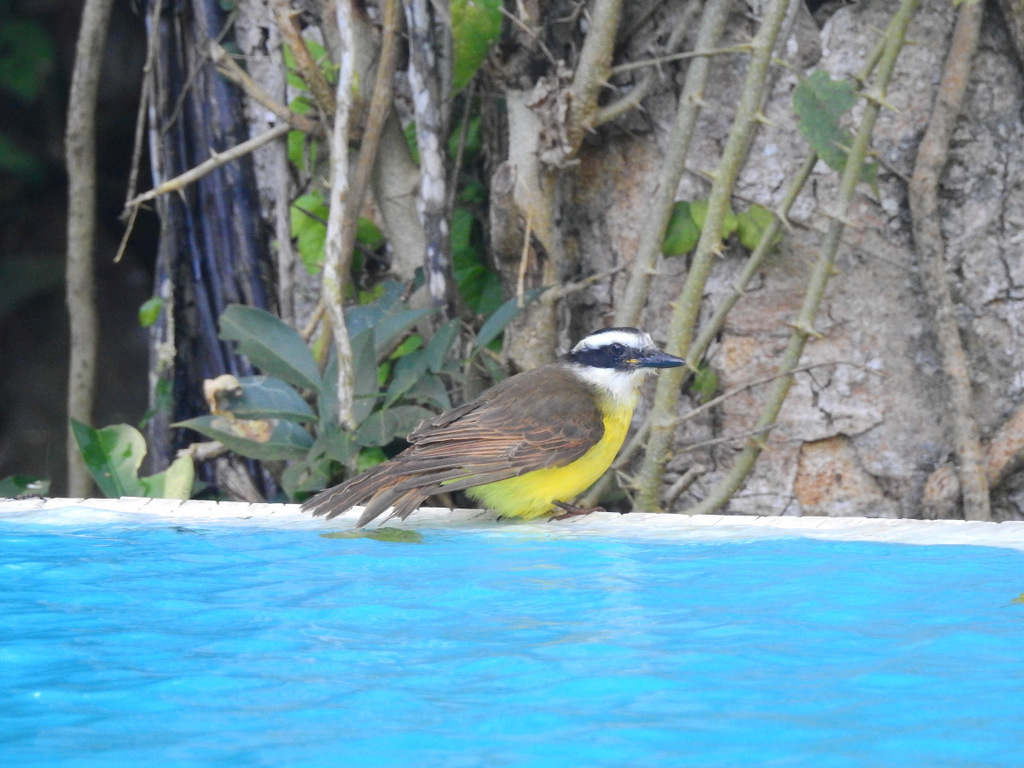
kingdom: Animalia
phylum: Chordata
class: Aves
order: Passeriformes
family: Tyrannidae
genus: Pitangus
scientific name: Pitangus sulphuratus
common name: Great kiskadee
